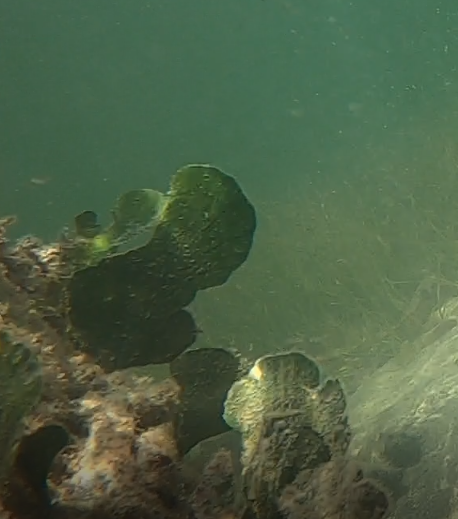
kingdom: Plantae
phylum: Chlorophyta
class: Ulvophyceae
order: Bryopsidales
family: Udoteaceae
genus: Udotea
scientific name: Udotea flabellum
